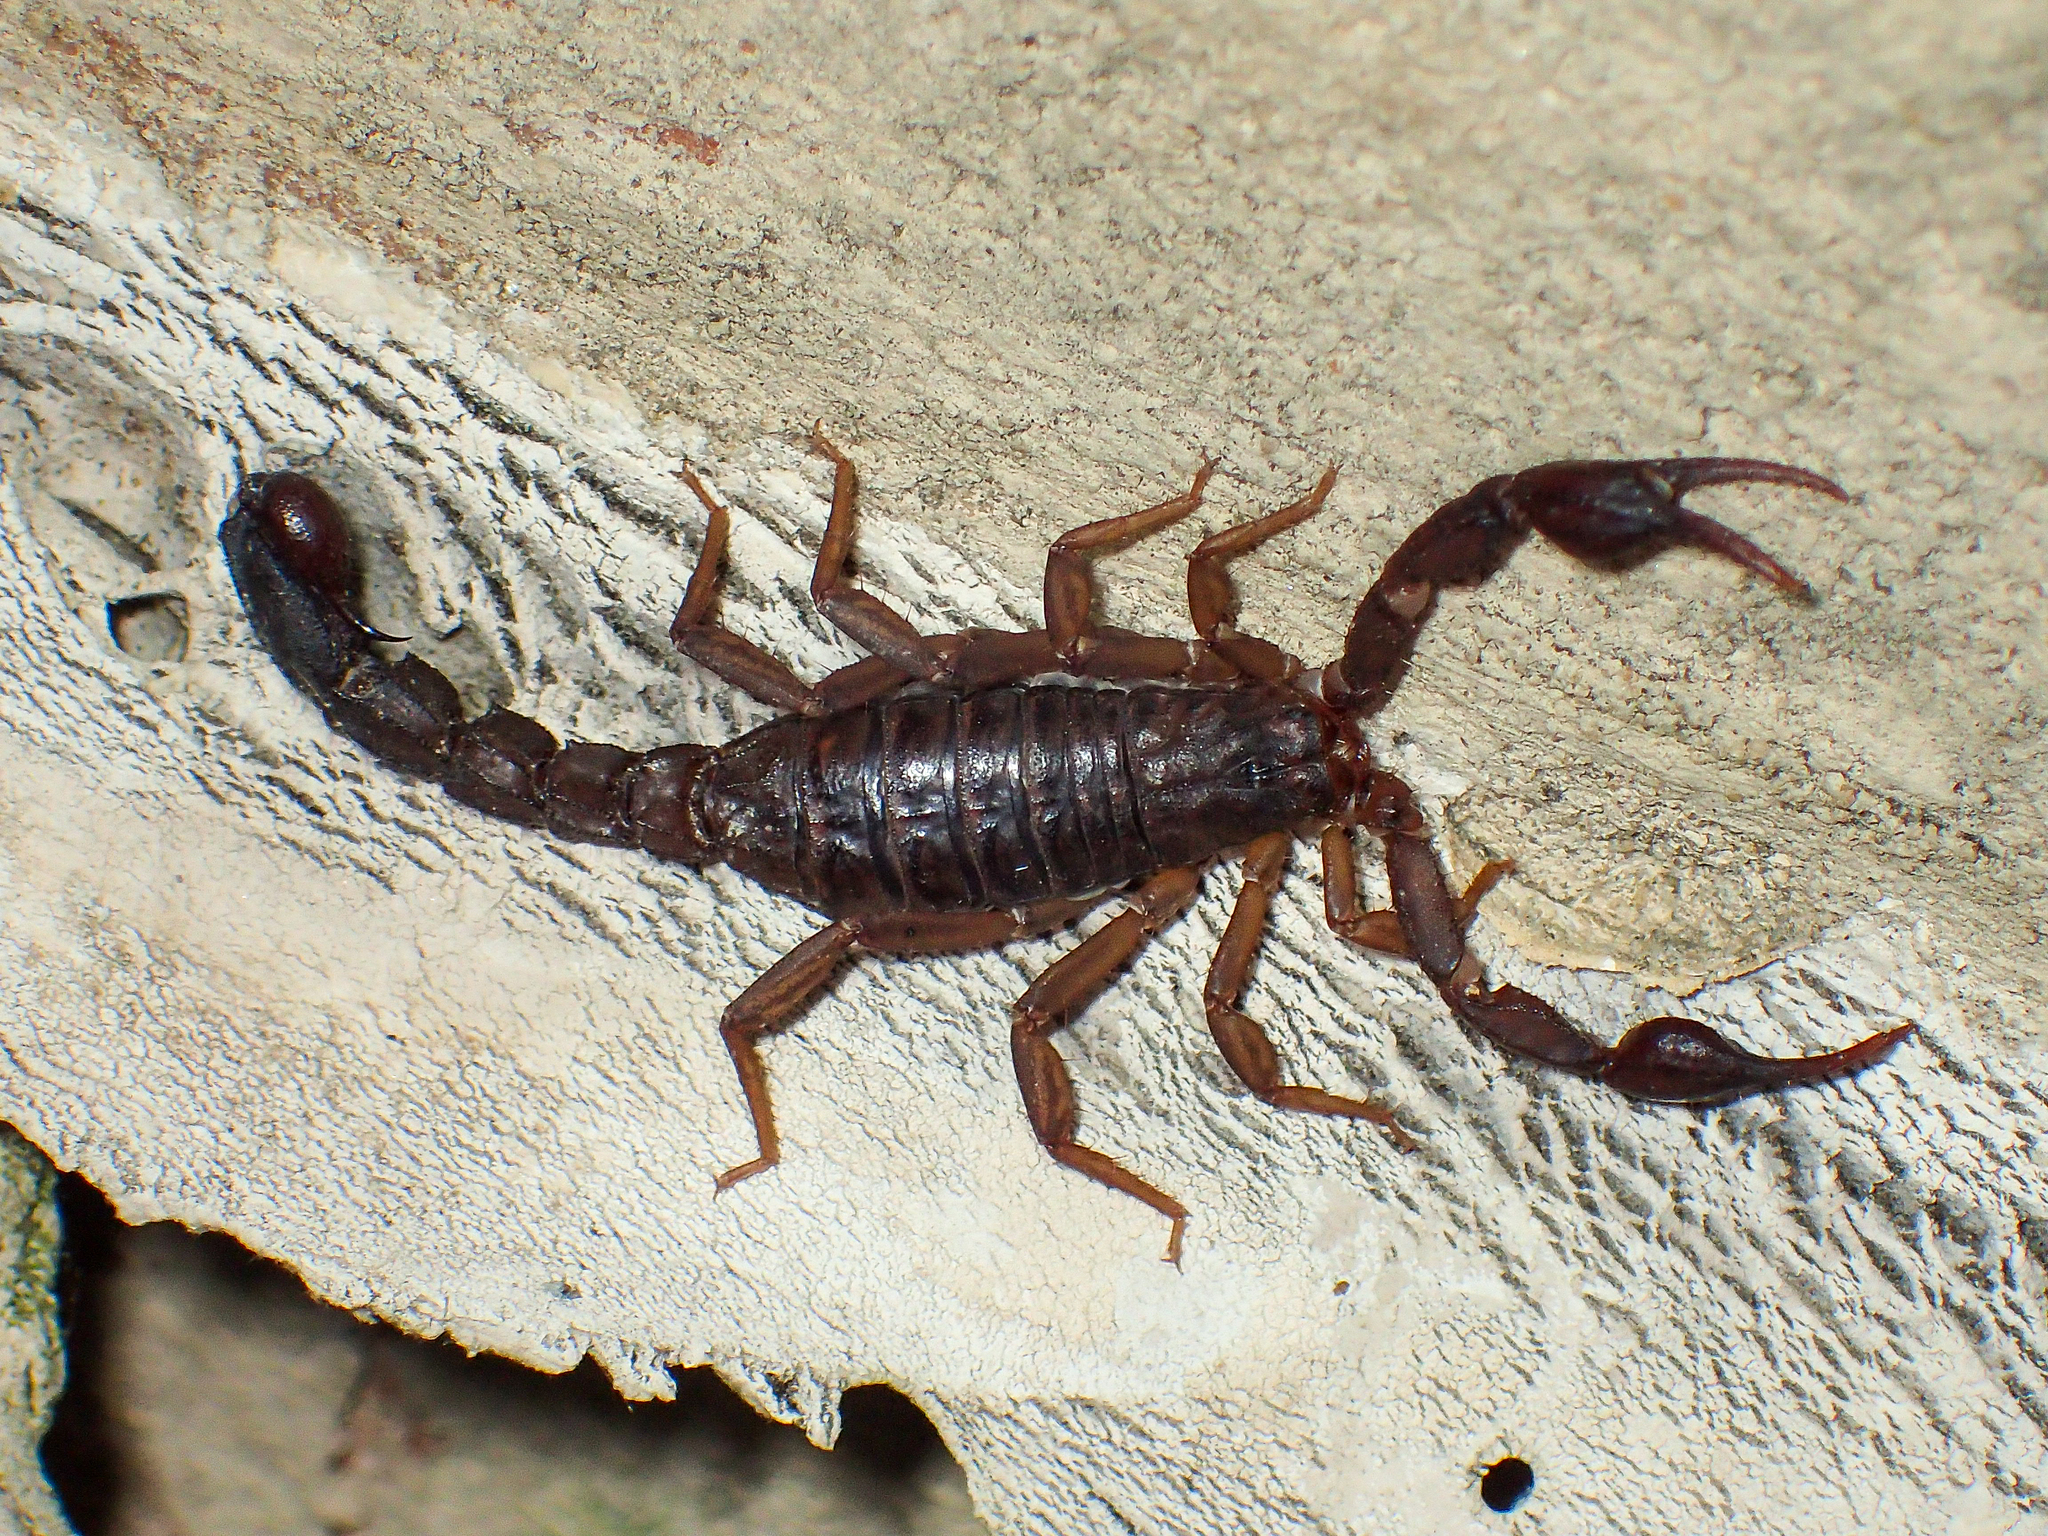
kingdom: Animalia
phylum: Arthropoda
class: Arachnida
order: Scorpiones
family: Vaejovidae
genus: Vaejovis
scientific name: Vaejovis carolinianus
